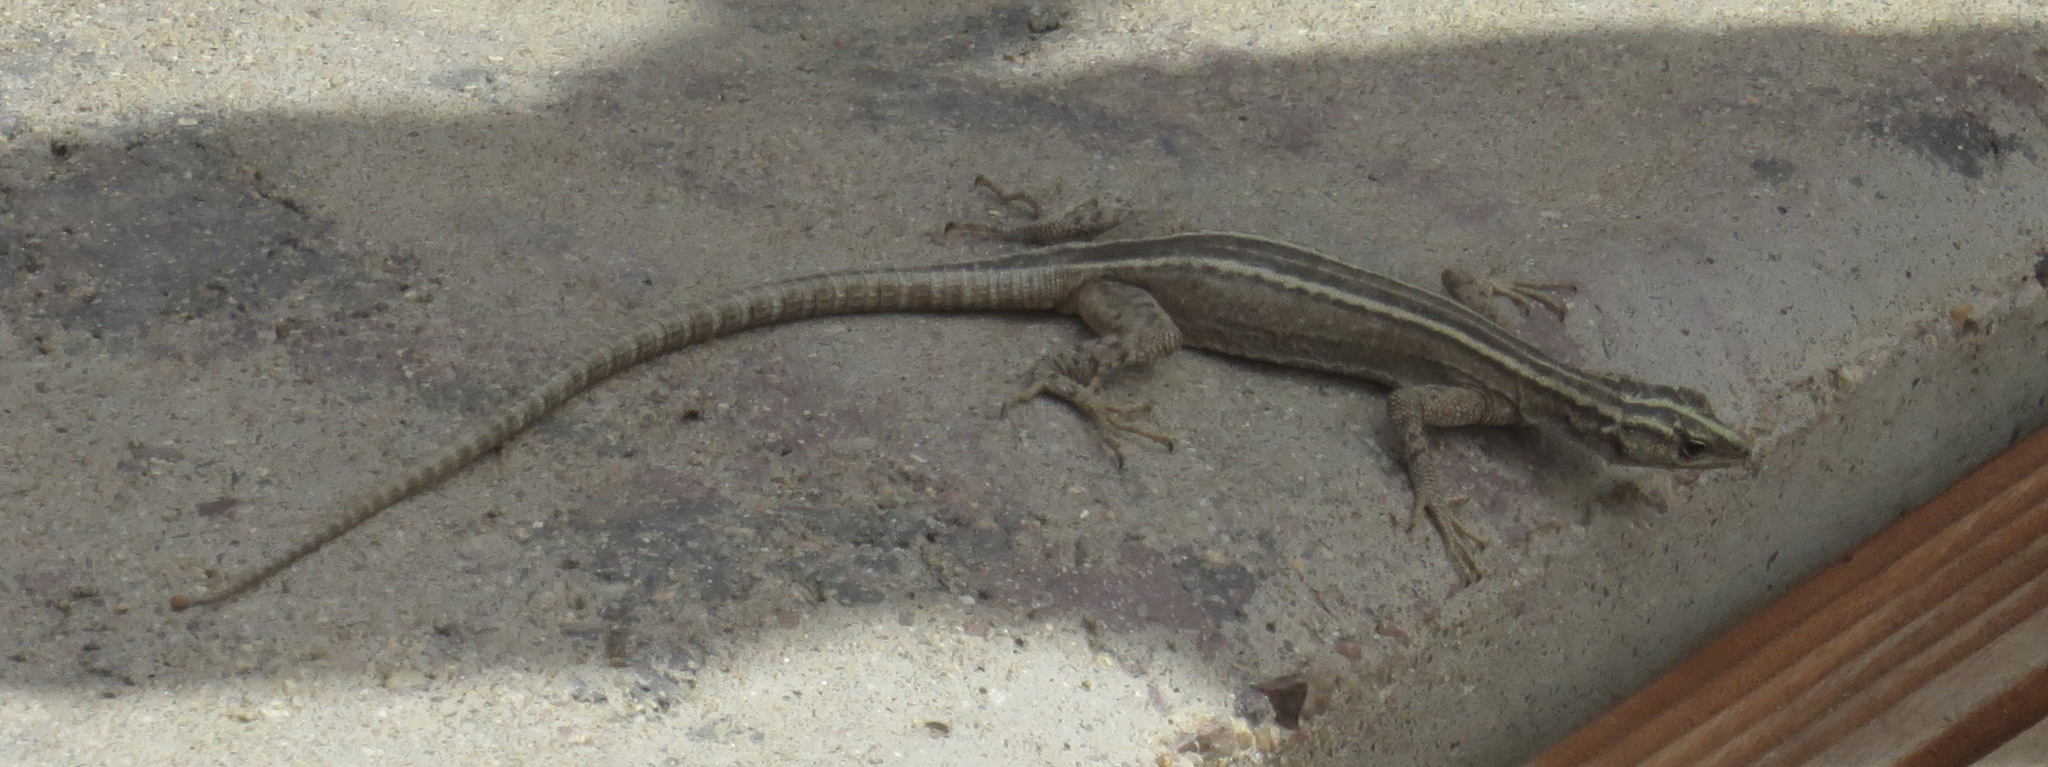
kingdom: Animalia
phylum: Chordata
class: Squamata
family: Cordylidae
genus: Platysaurus
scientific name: Platysaurus broadleyi
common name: Augrabies flat lizard
